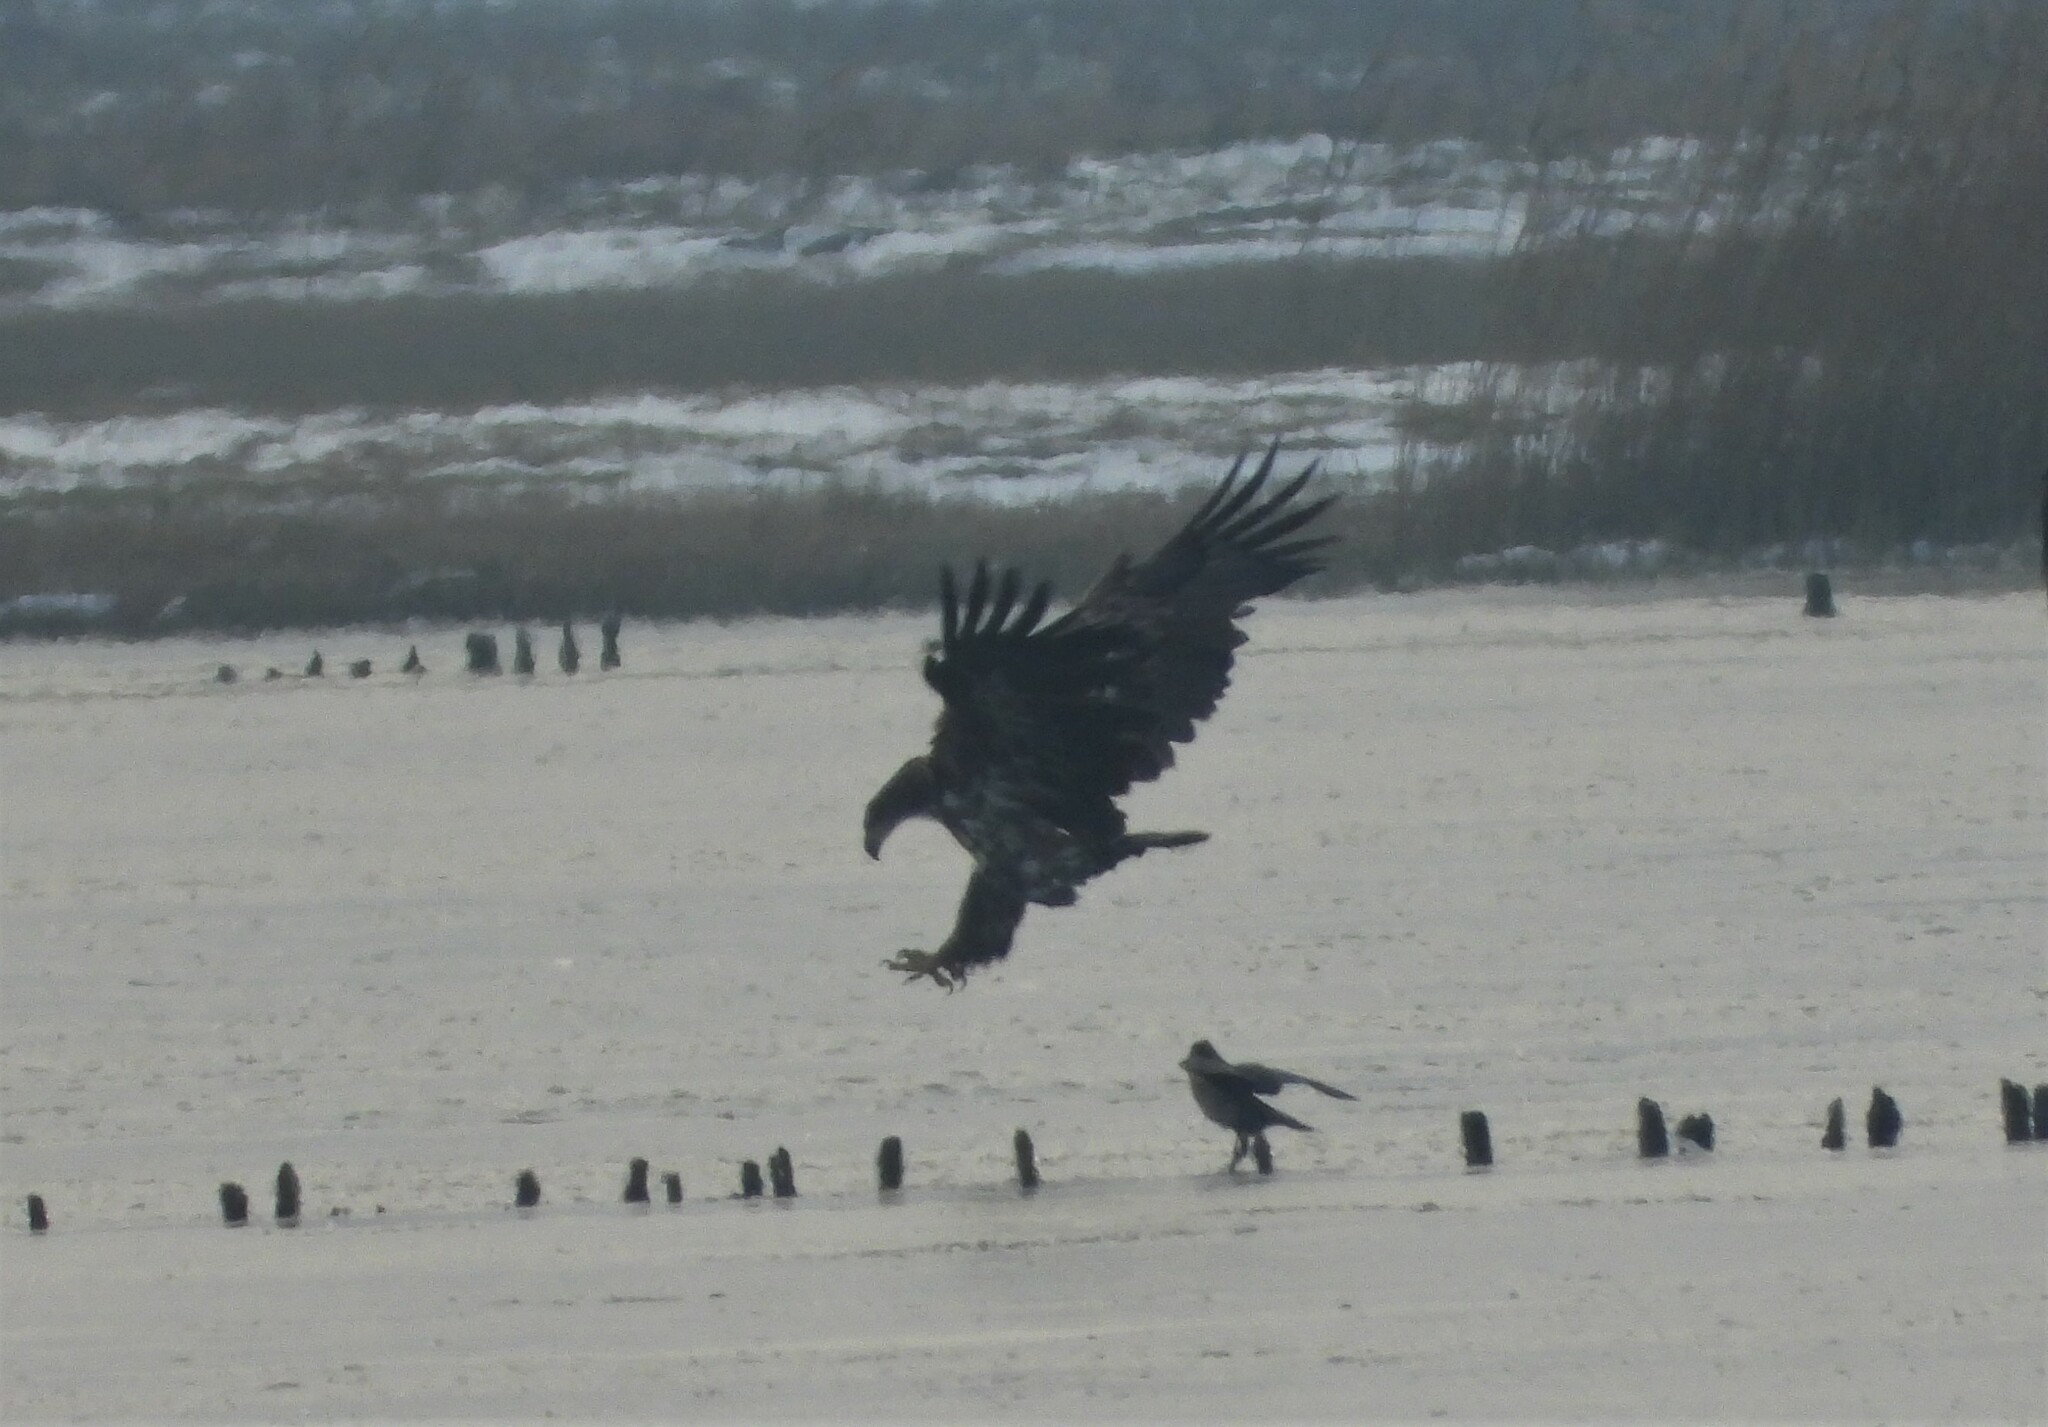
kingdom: Animalia
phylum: Chordata
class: Aves
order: Accipitriformes
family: Accipitridae
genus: Haliaeetus
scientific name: Haliaeetus albicilla
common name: White-tailed eagle
